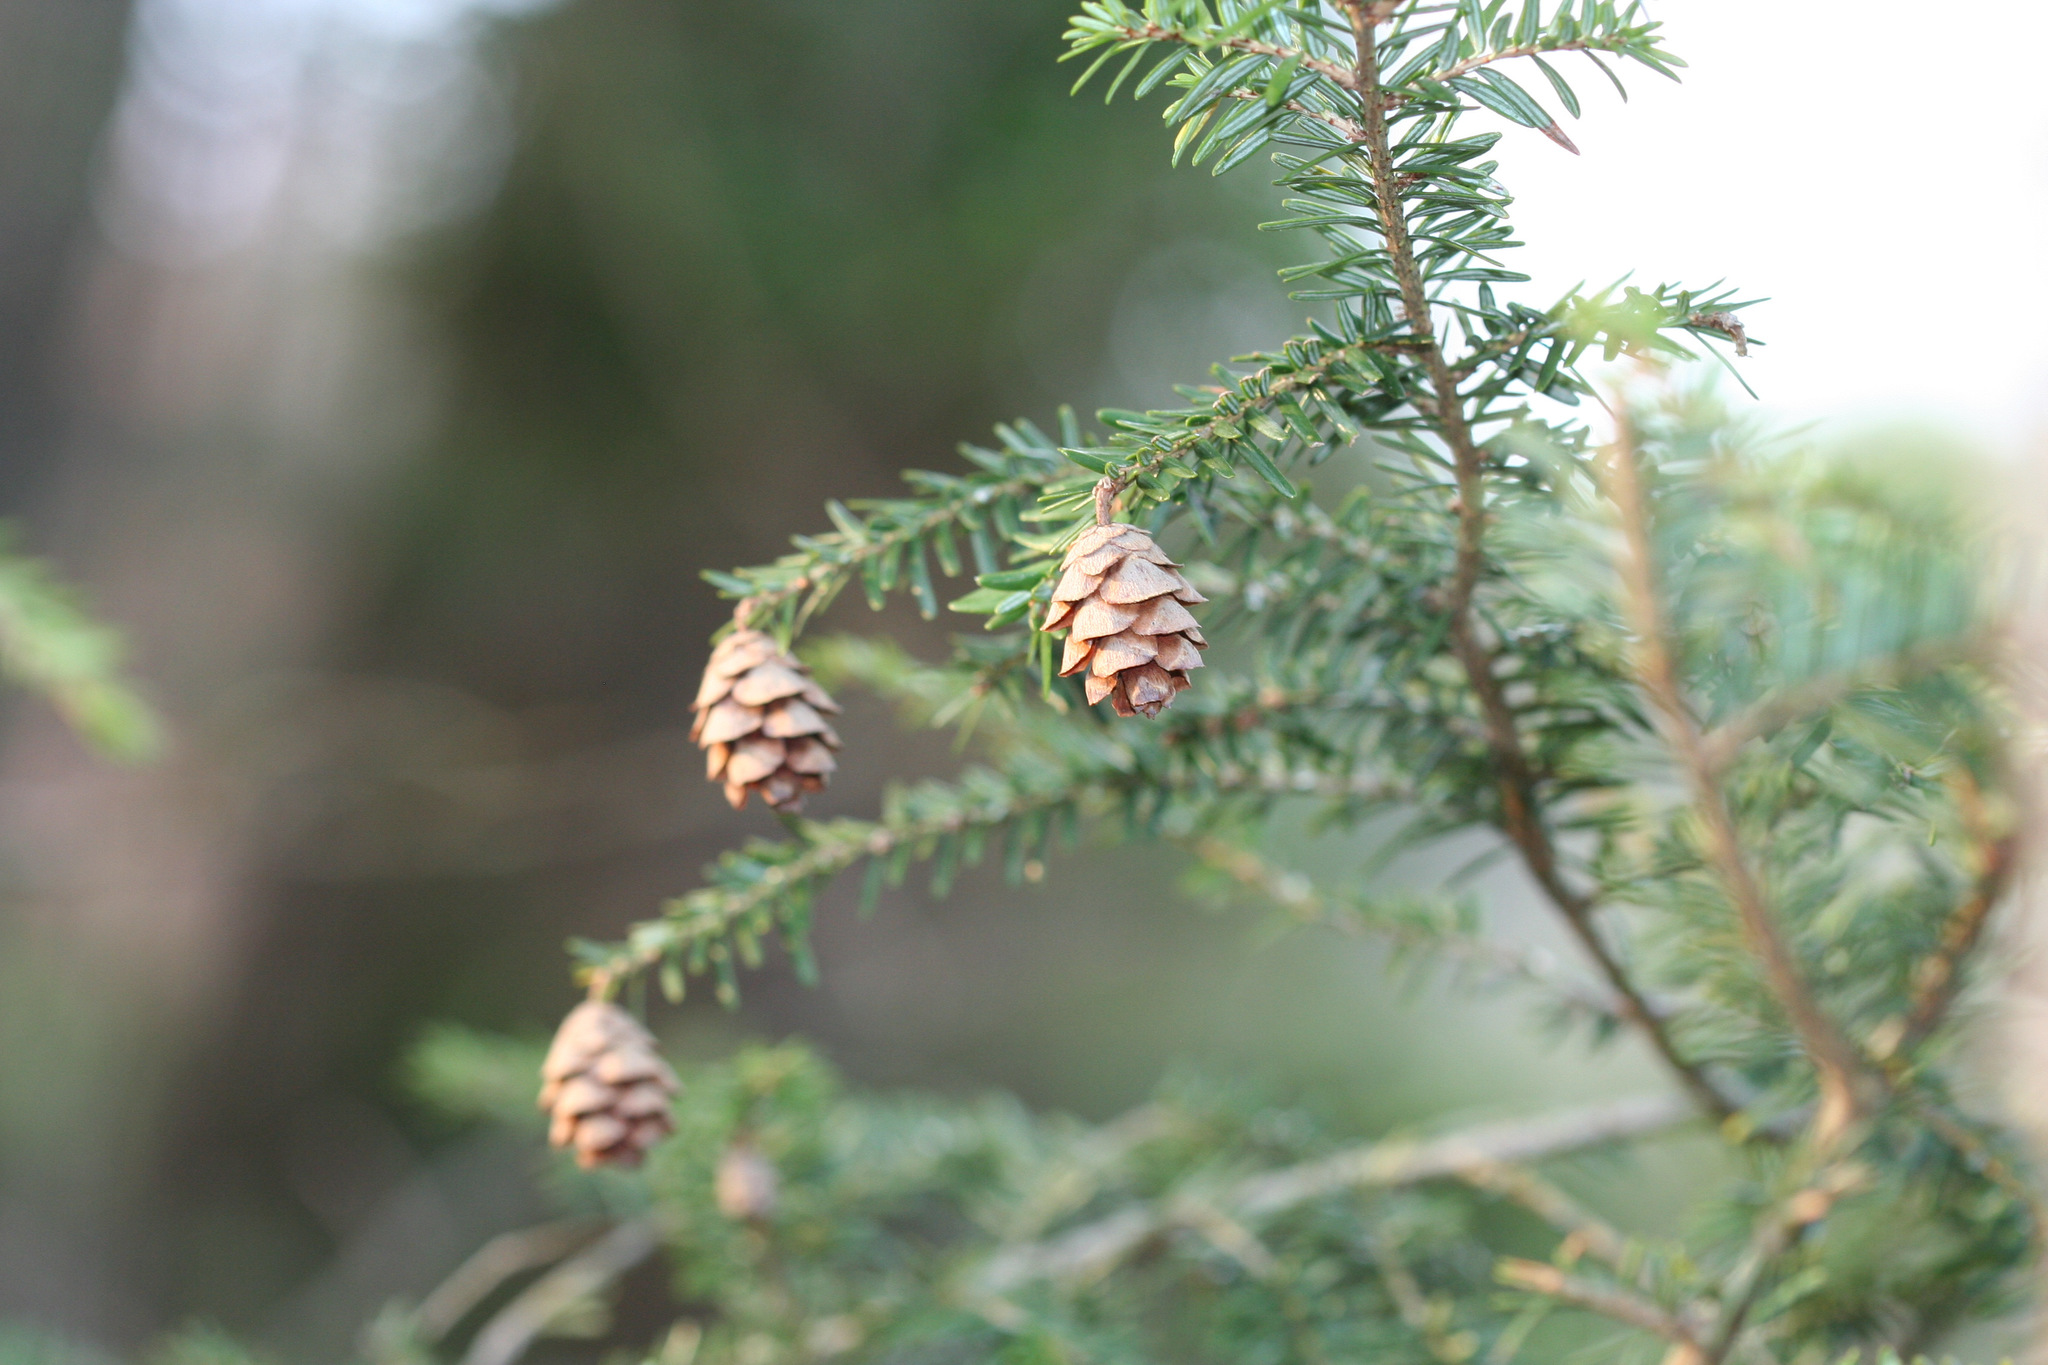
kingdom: Plantae
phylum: Tracheophyta
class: Pinopsida
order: Pinales
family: Pinaceae
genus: Tsuga
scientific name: Tsuga canadensis
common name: Eastern hemlock
